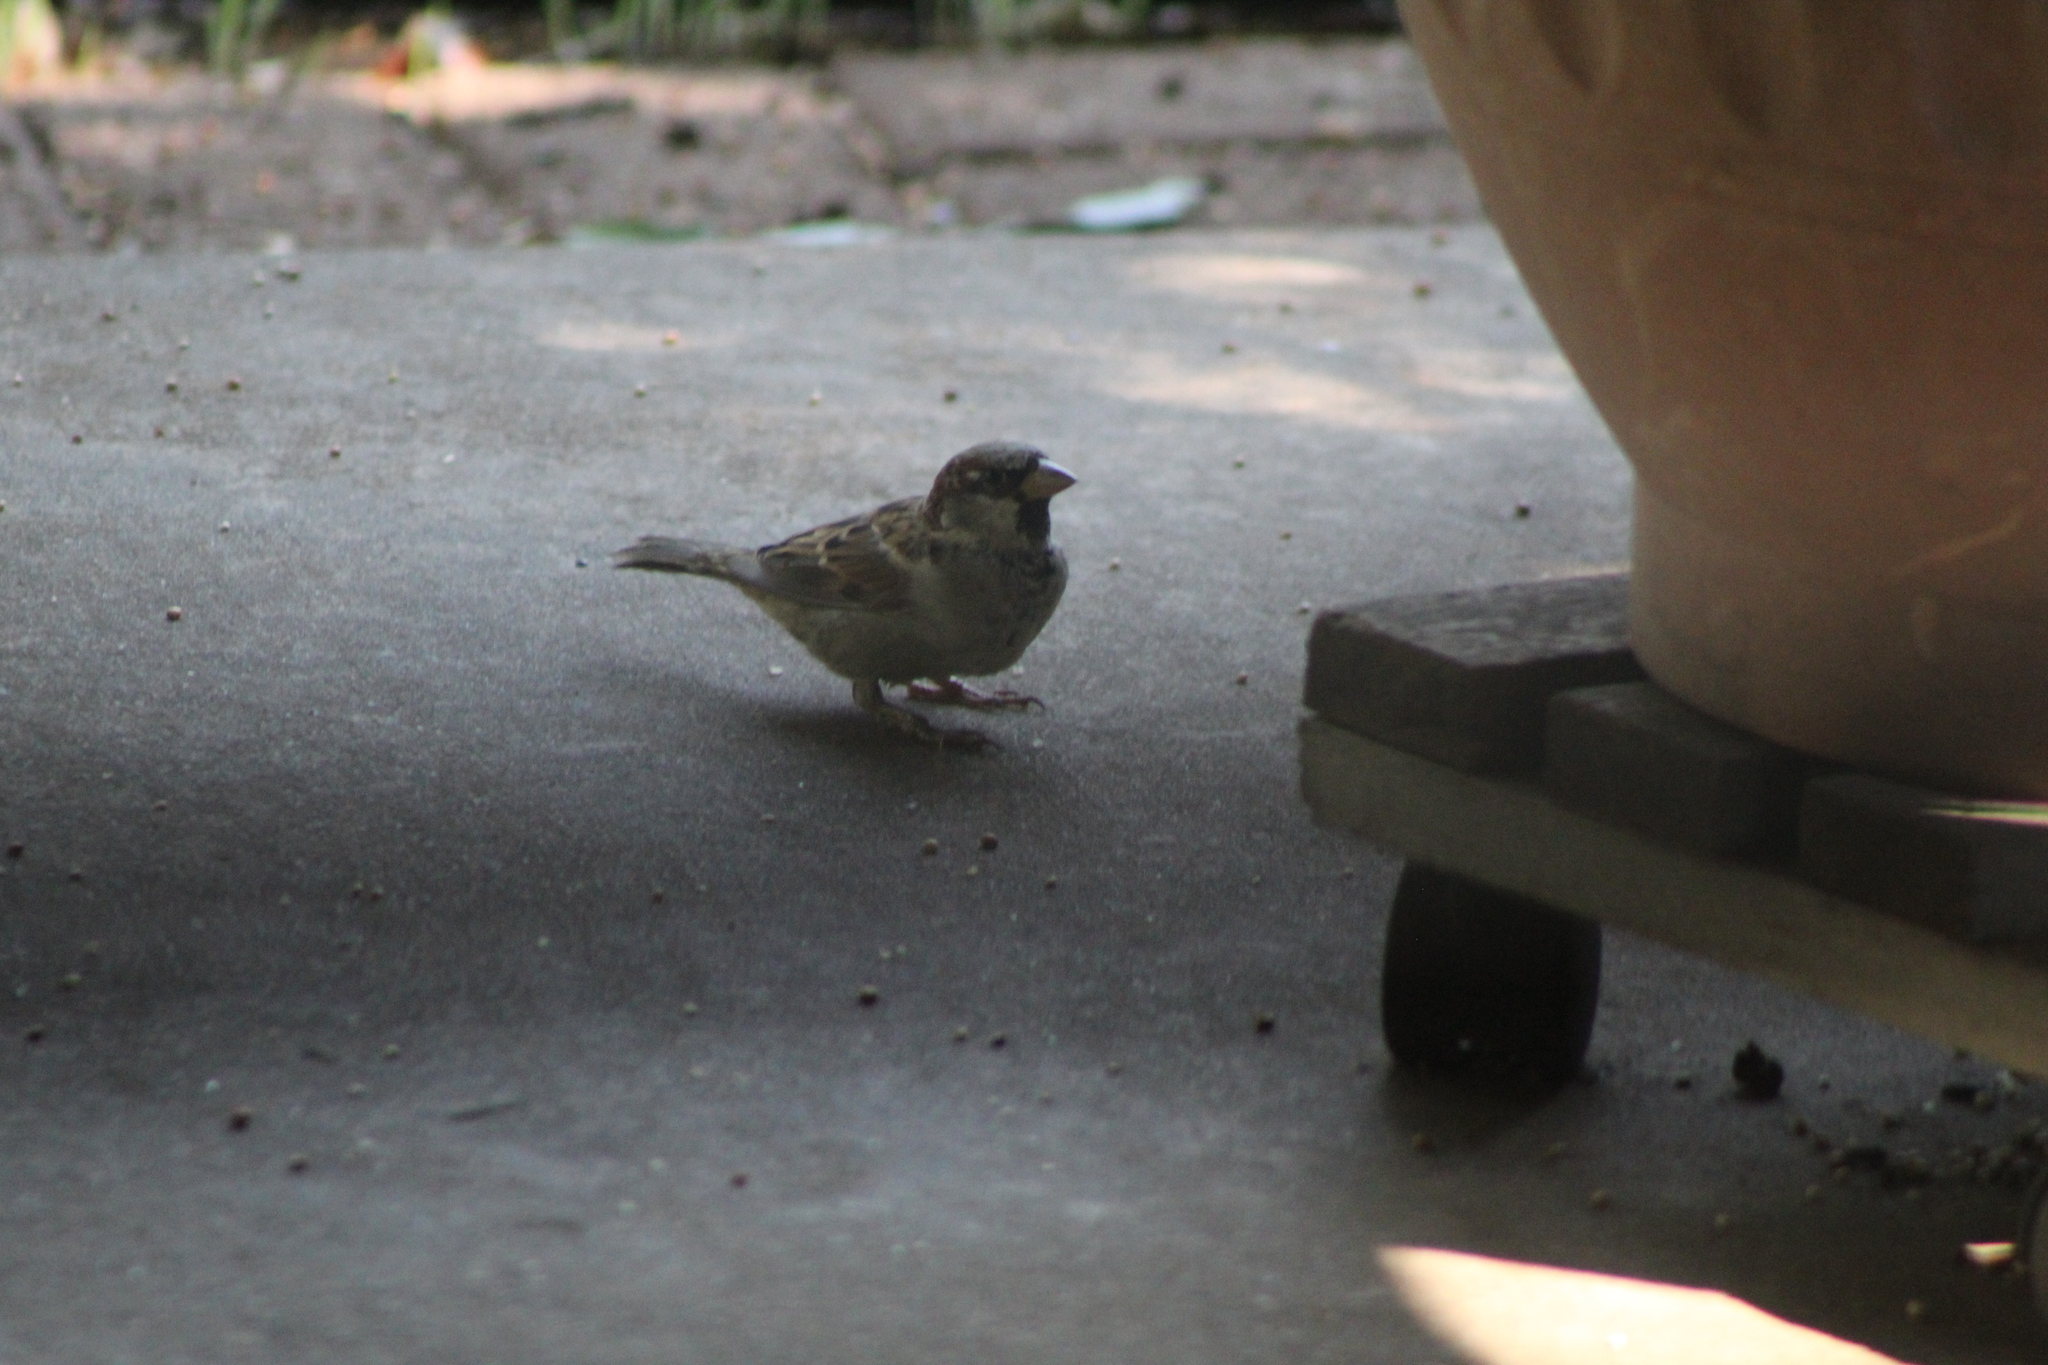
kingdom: Animalia
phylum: Chordata
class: Aves
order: Passeriformes
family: Passeridae
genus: Passer
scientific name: Passer domesticus
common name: House sparrow
